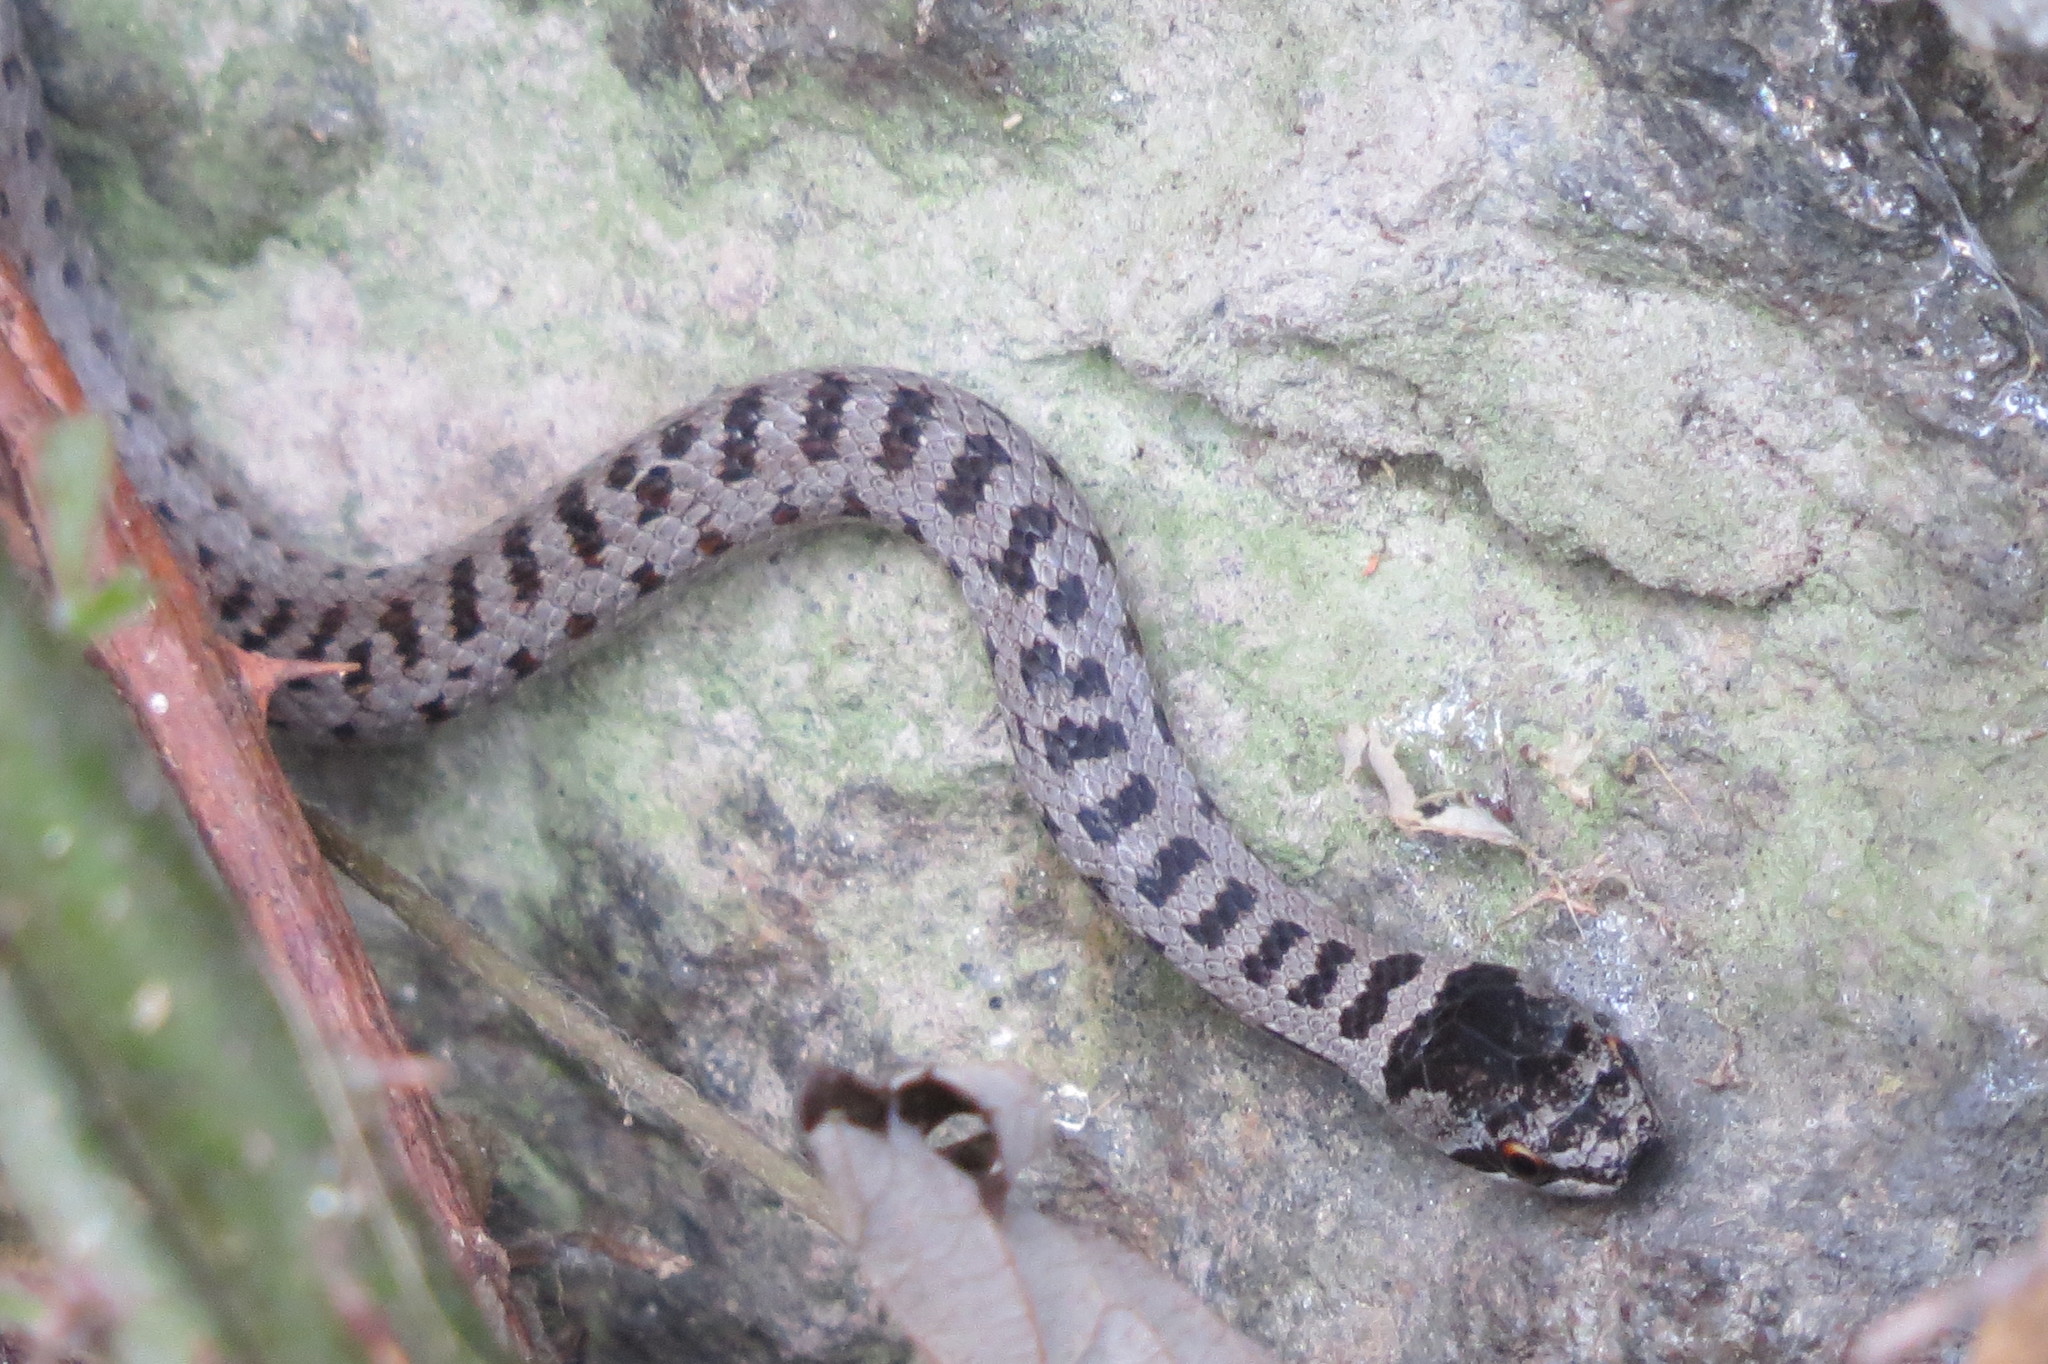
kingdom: Animalia
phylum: Chordata
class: Squamata
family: Colubridae
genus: Coronella
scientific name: Coronella austriaca
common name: Smooth snake
